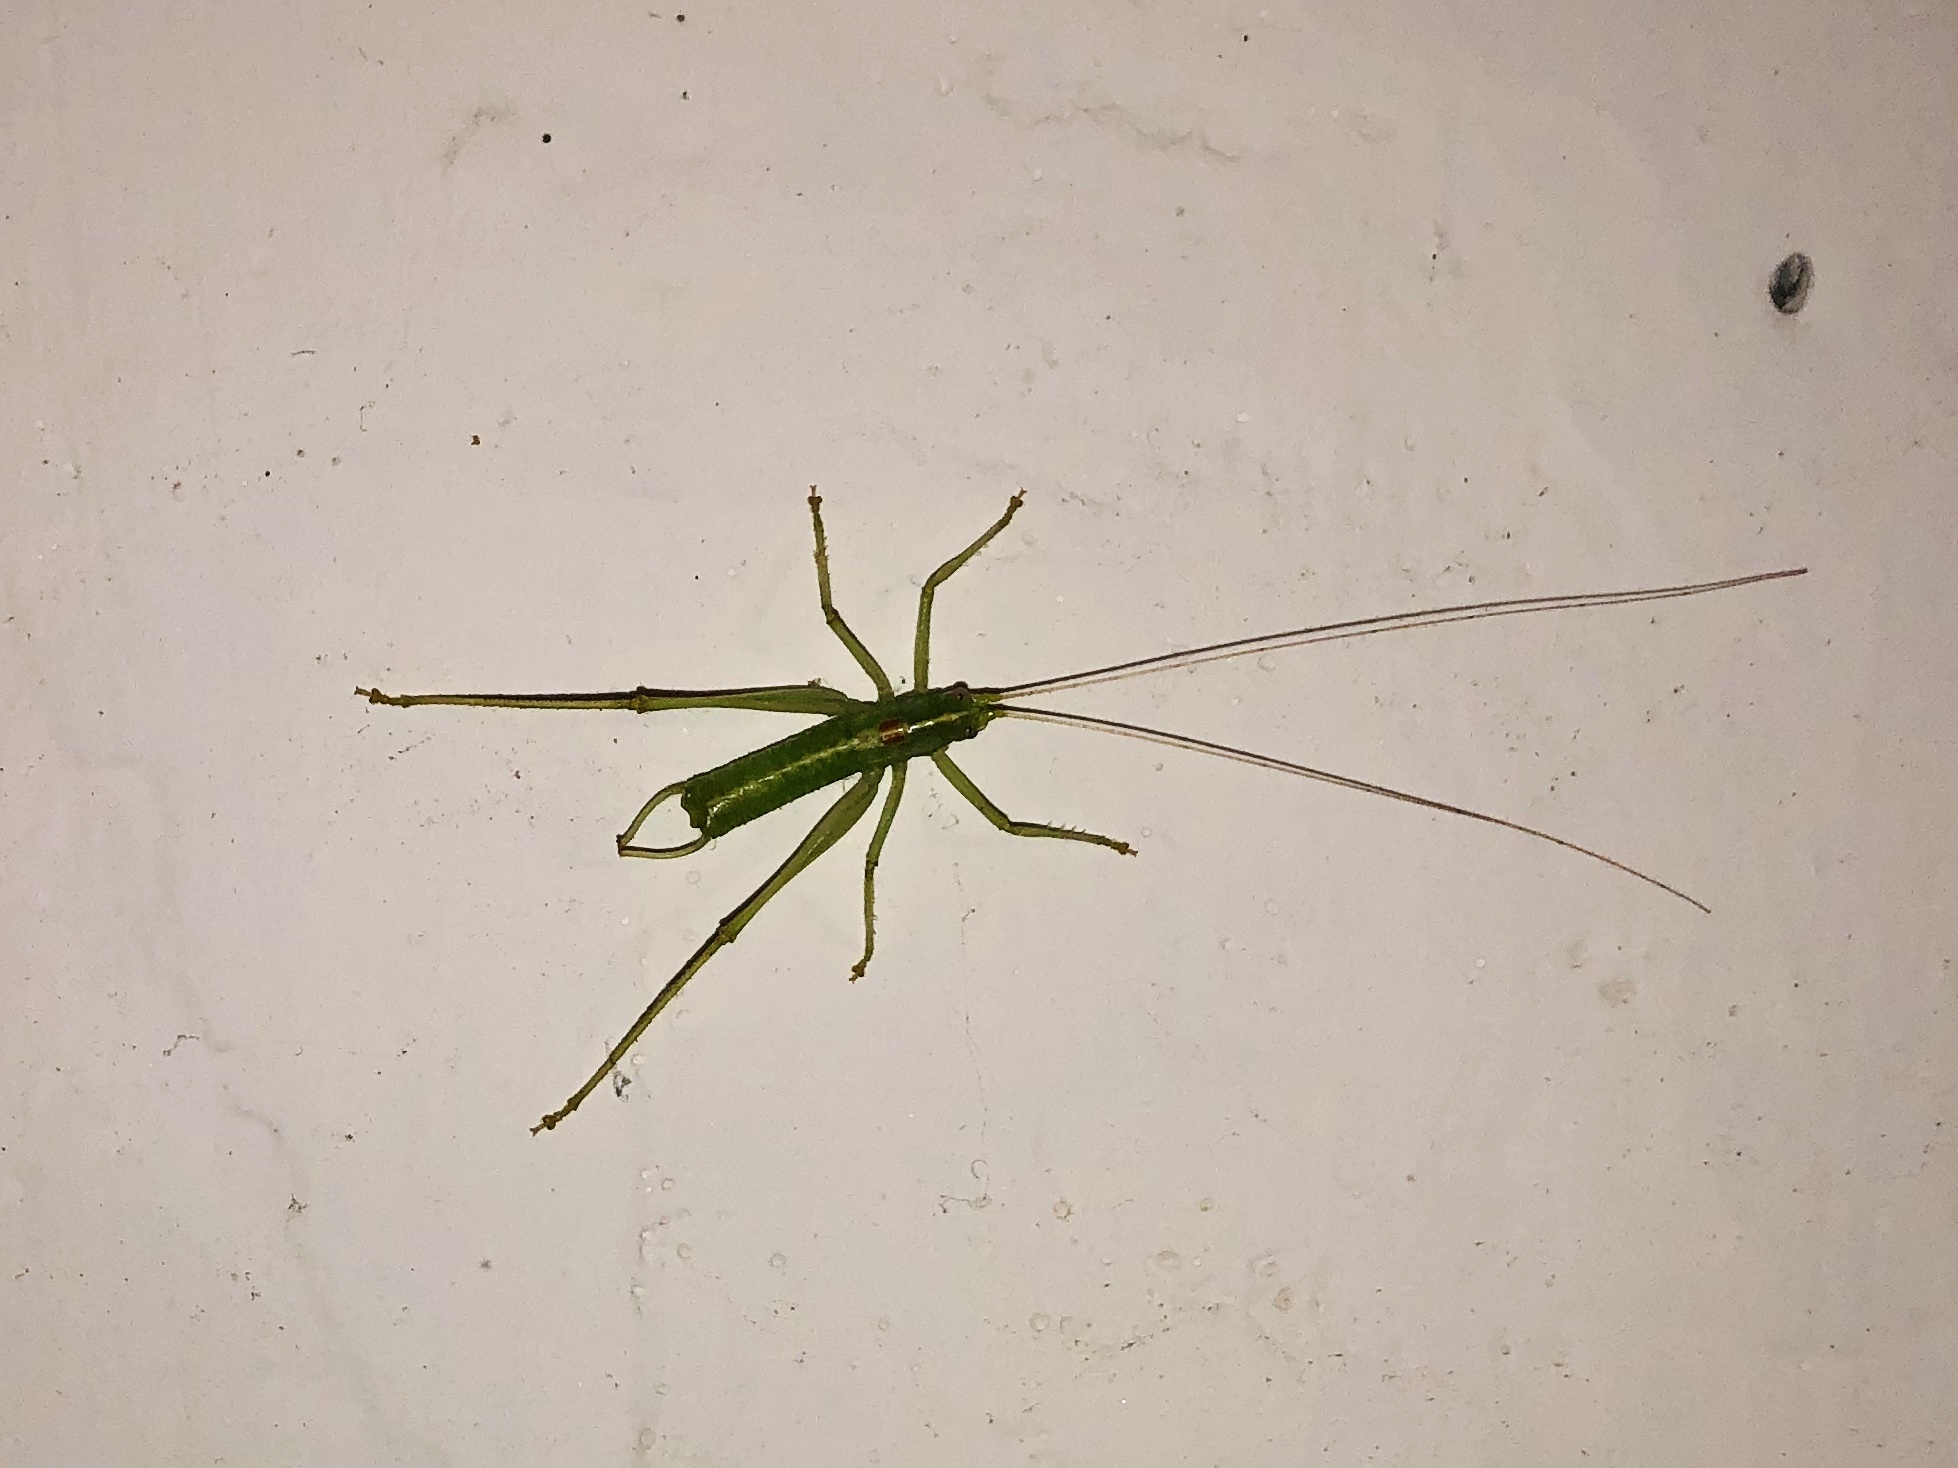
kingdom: Animalia
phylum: Arthropoda
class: Insecta
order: Orthoptera
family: Tettigoniidae
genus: Meconema
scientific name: Meconema meridionale
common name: Southern oak bush-cricket
